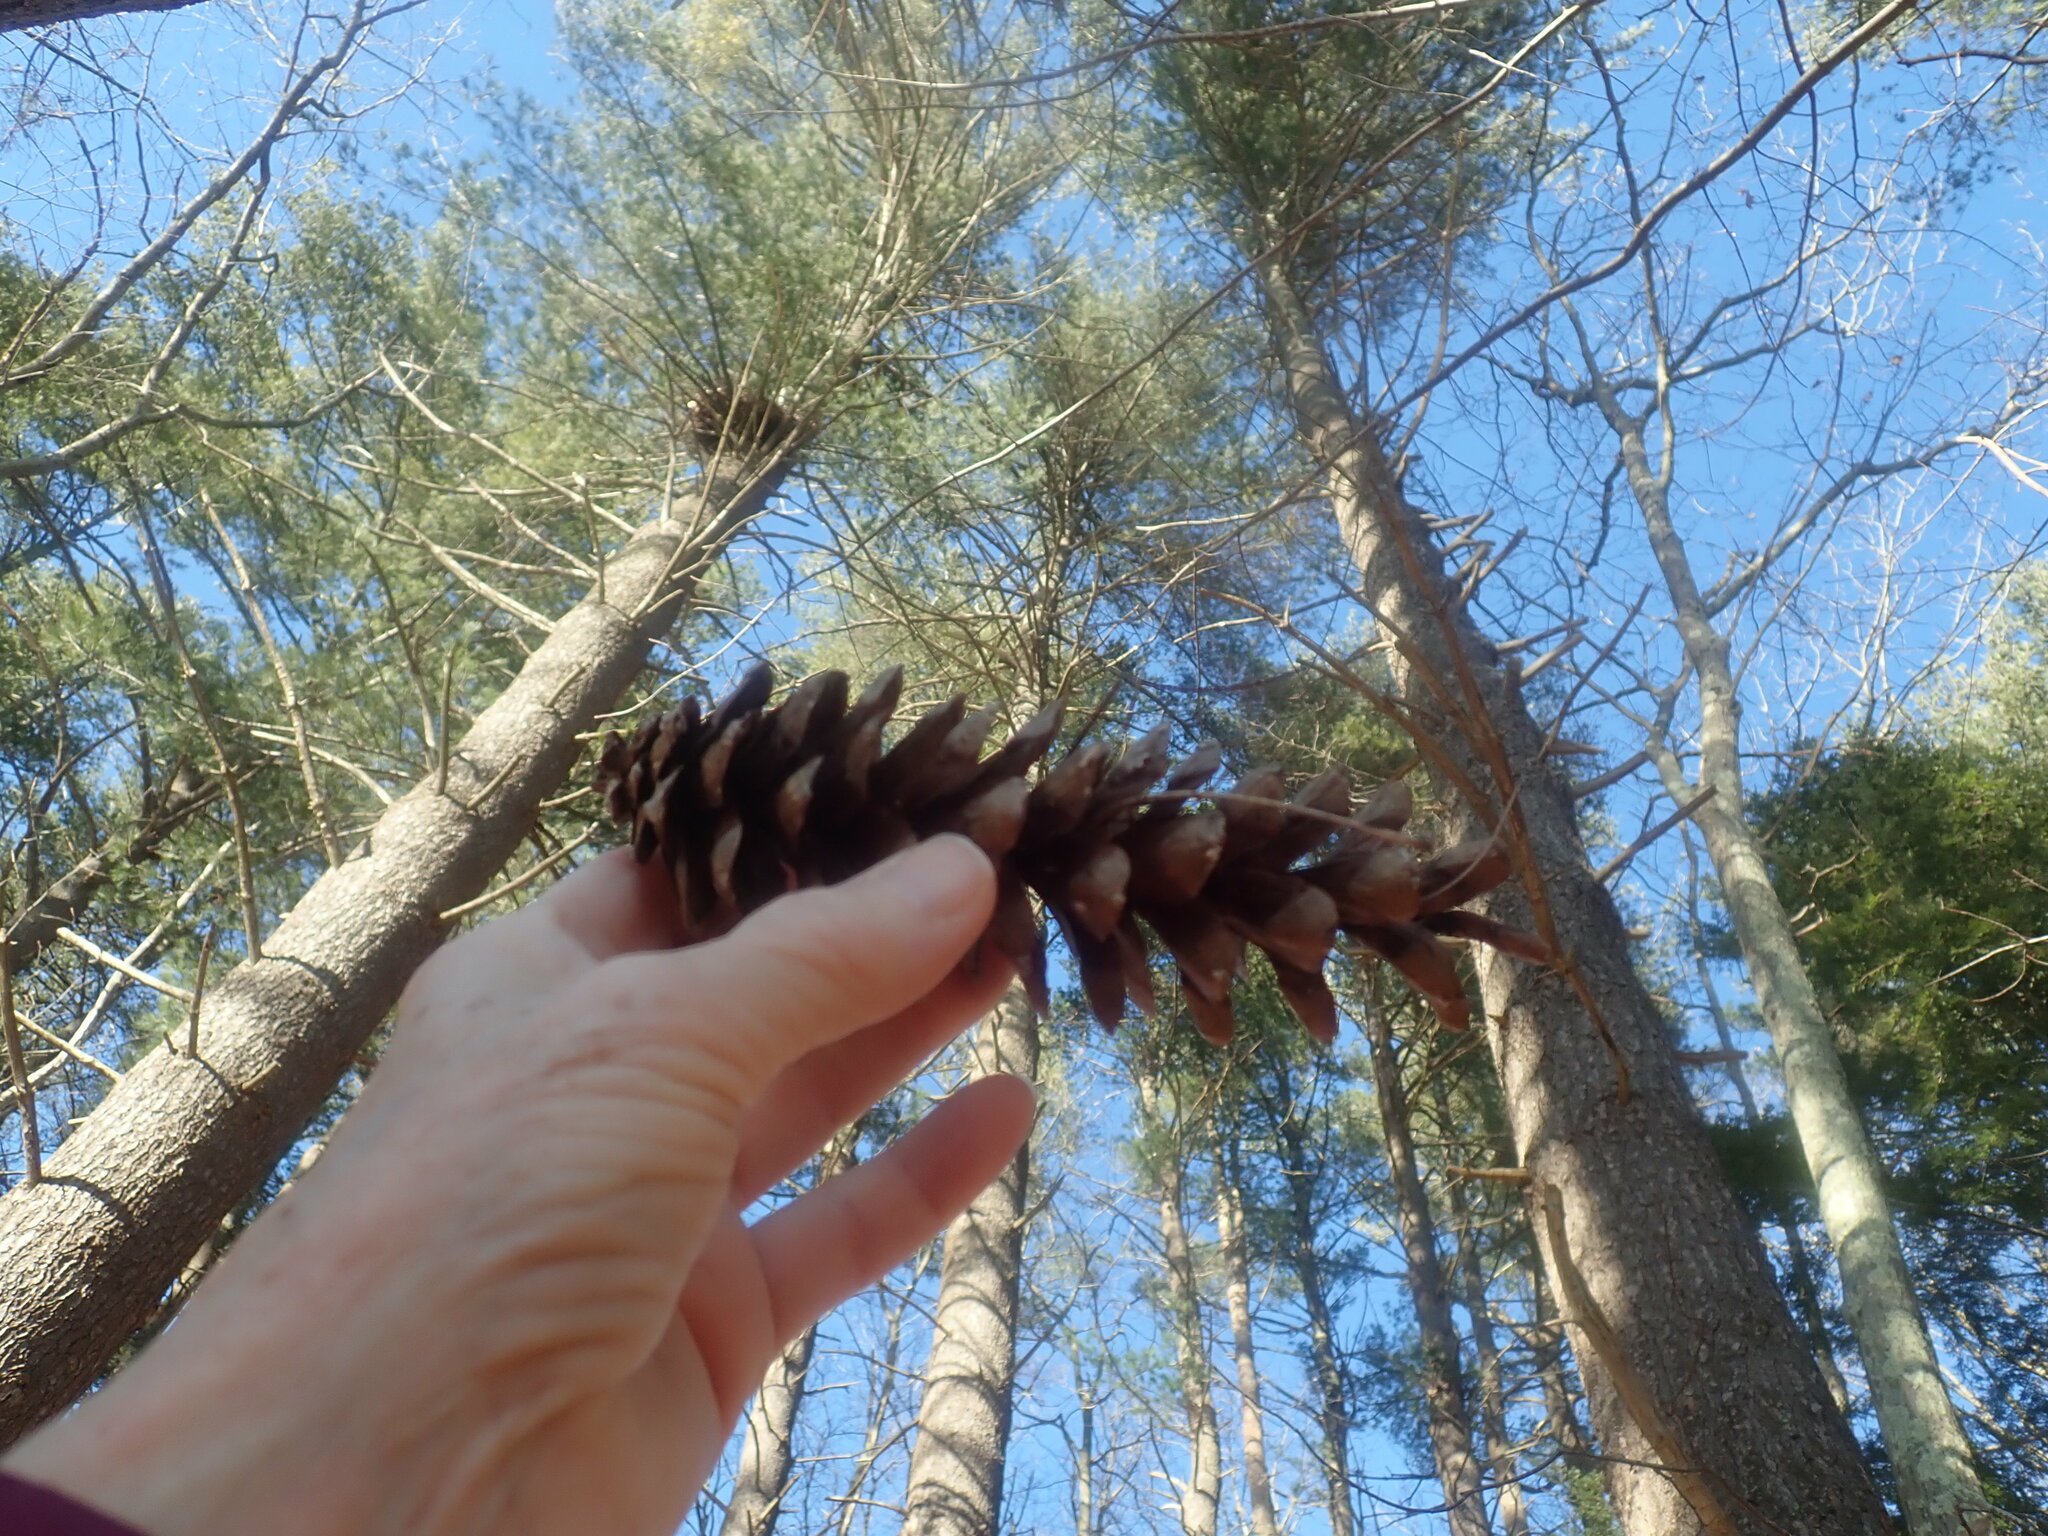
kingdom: Plantae
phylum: Tracheophyta
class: Pinopsida
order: Pinales
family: Pinaceae
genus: Pinus
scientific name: Pinus strobus
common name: Weymouth pine
